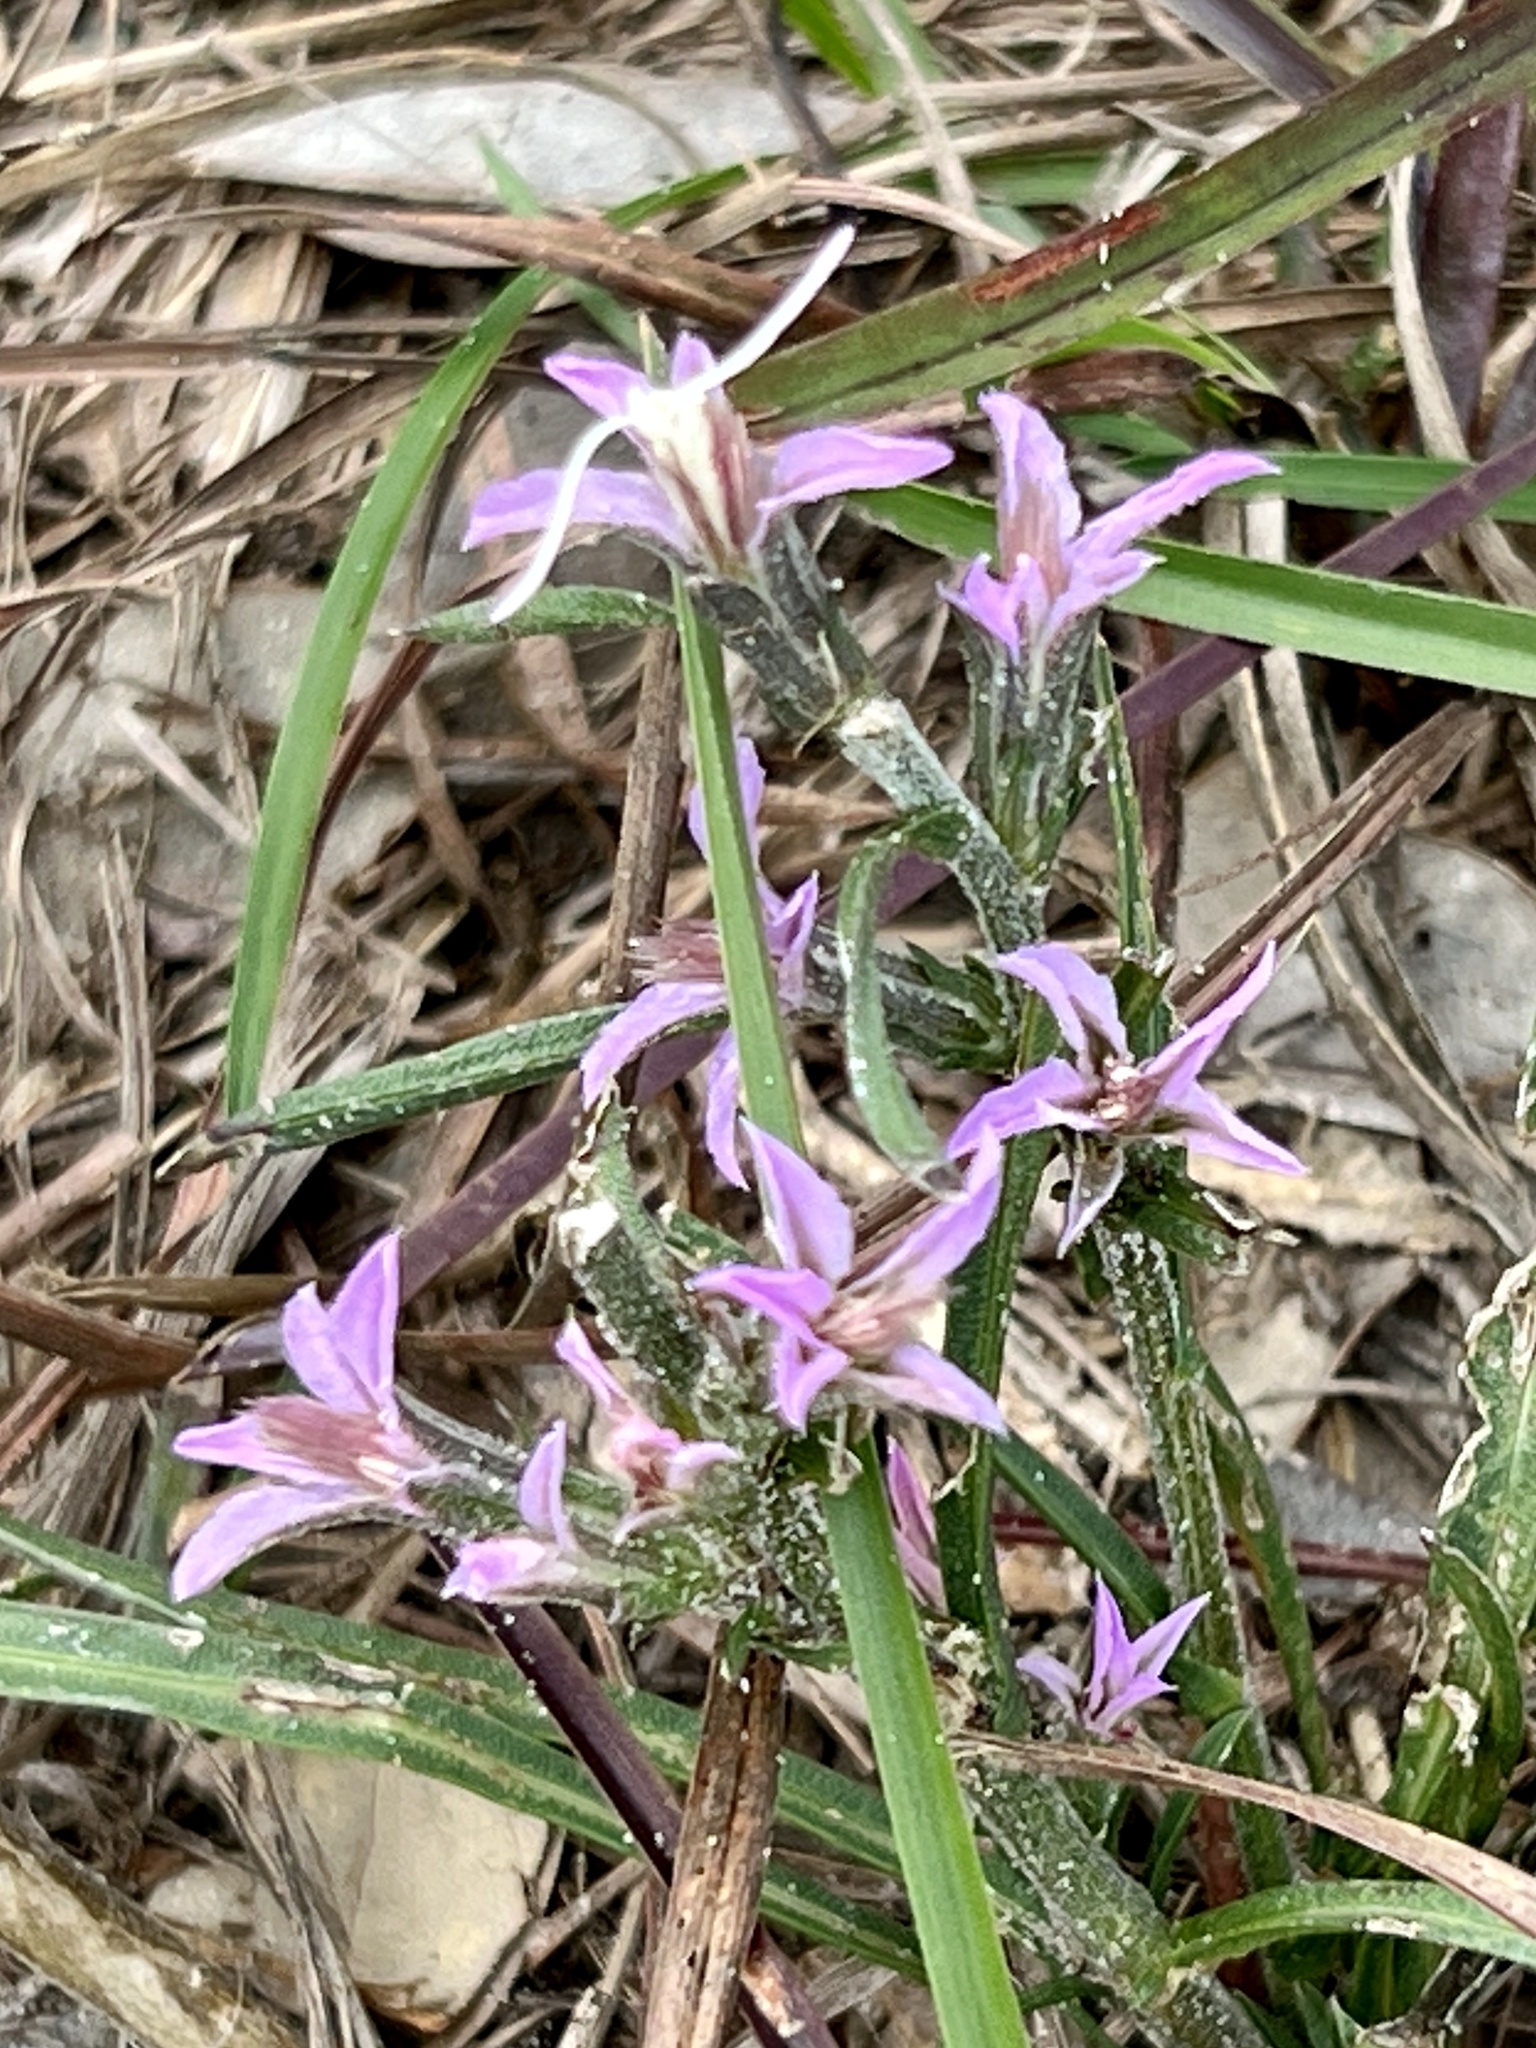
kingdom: Plantae
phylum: Tracheophyta
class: Magnoliopsida
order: Asterales
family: Asteraceae
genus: Liatris
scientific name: Liatris carizzana
